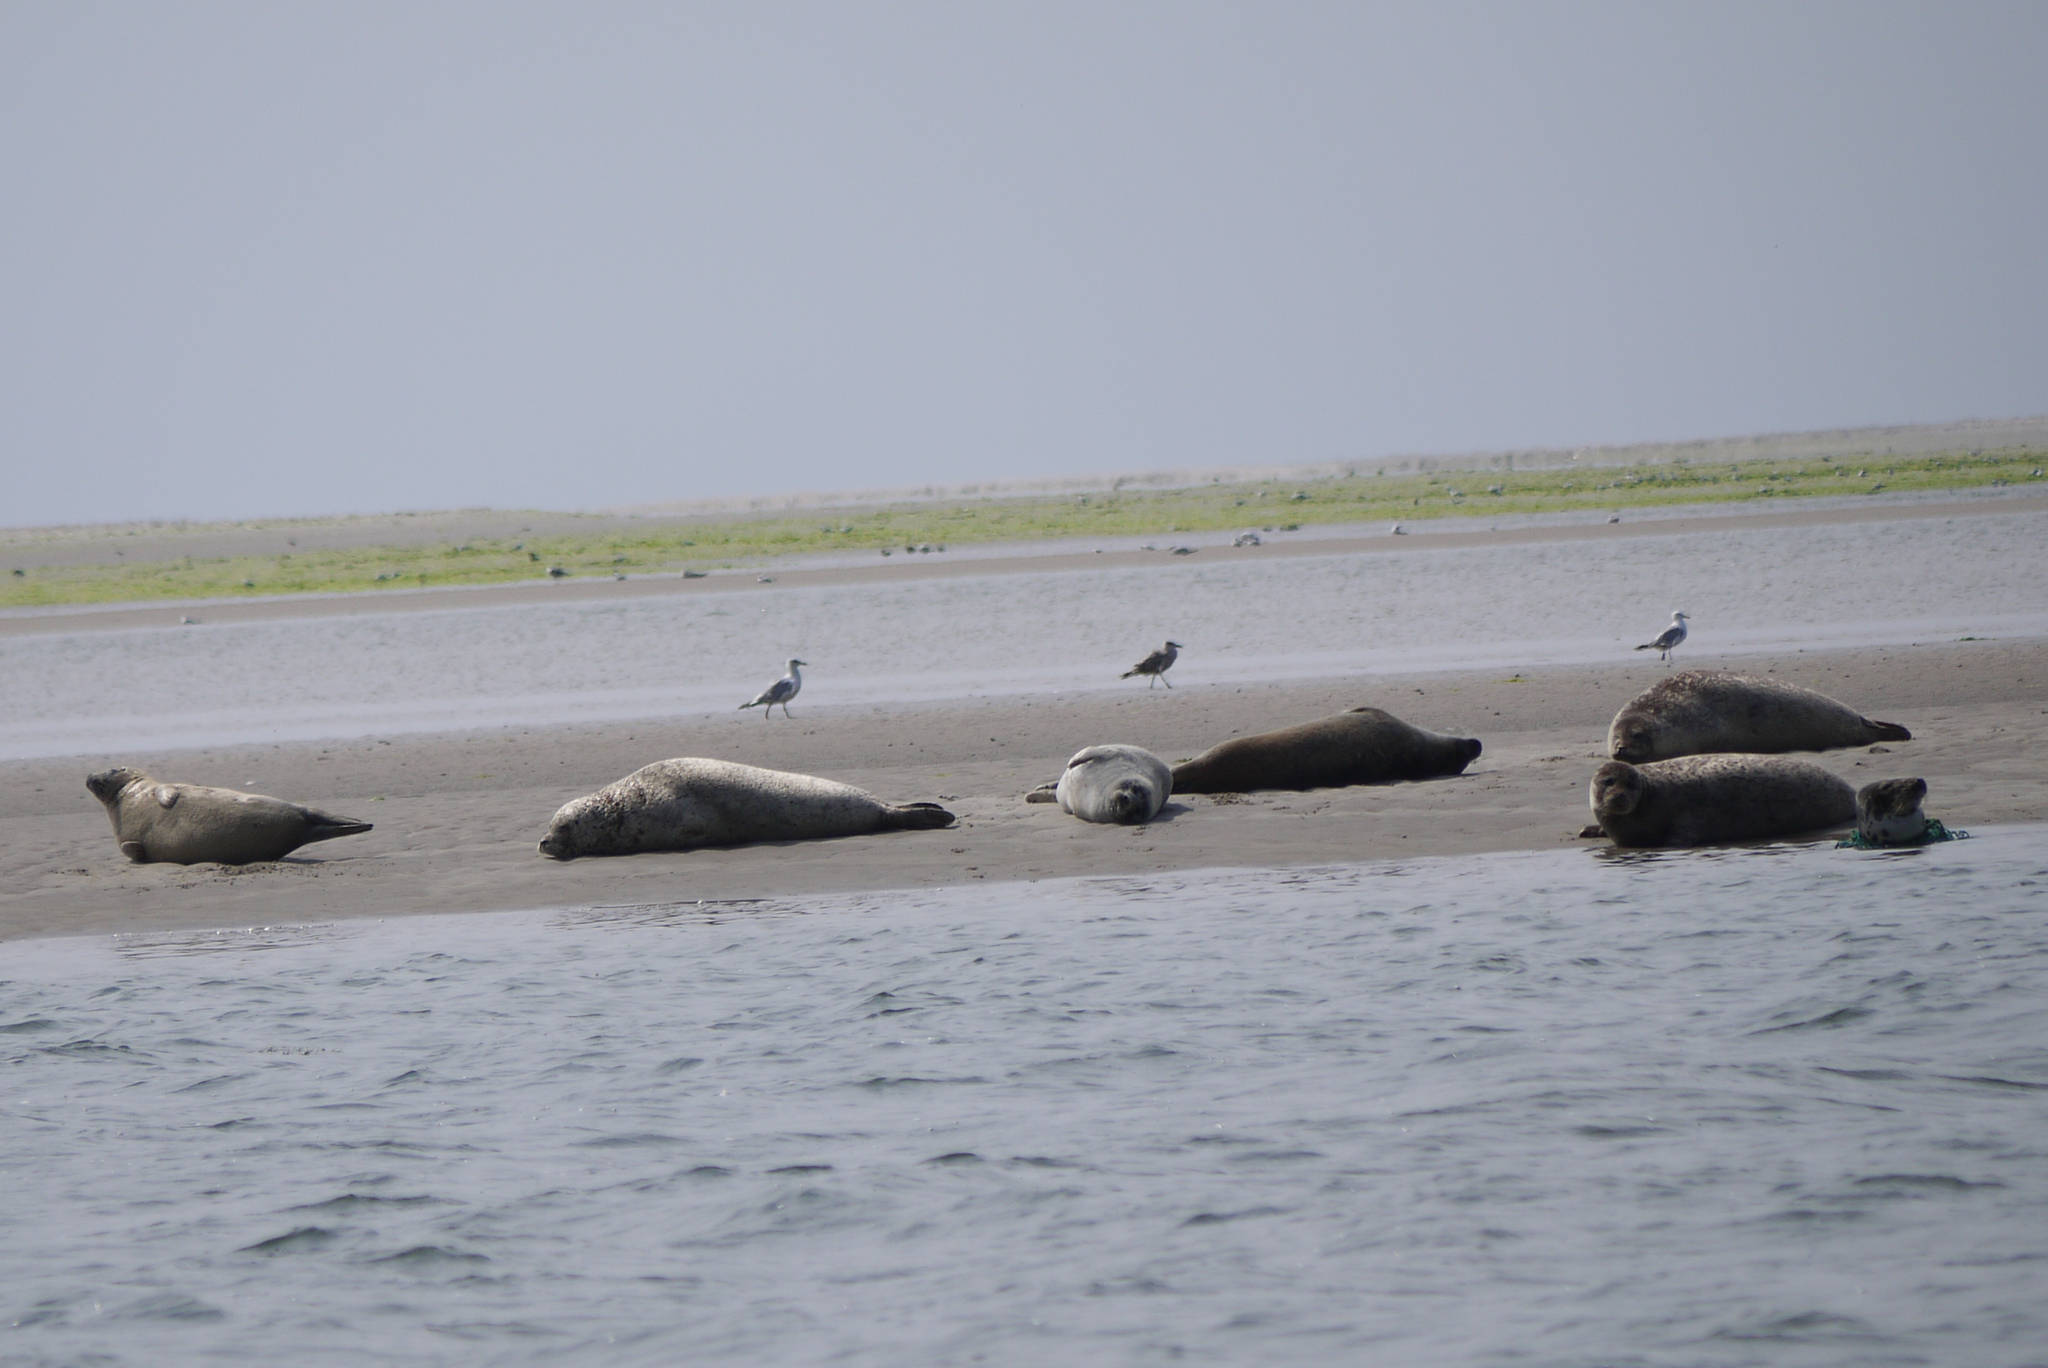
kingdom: Animalia
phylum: Chordata
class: Mammalia
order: Carnivora
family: Phocidae
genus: Halichoerus
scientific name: Halichoerus grypus
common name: Grey seal
